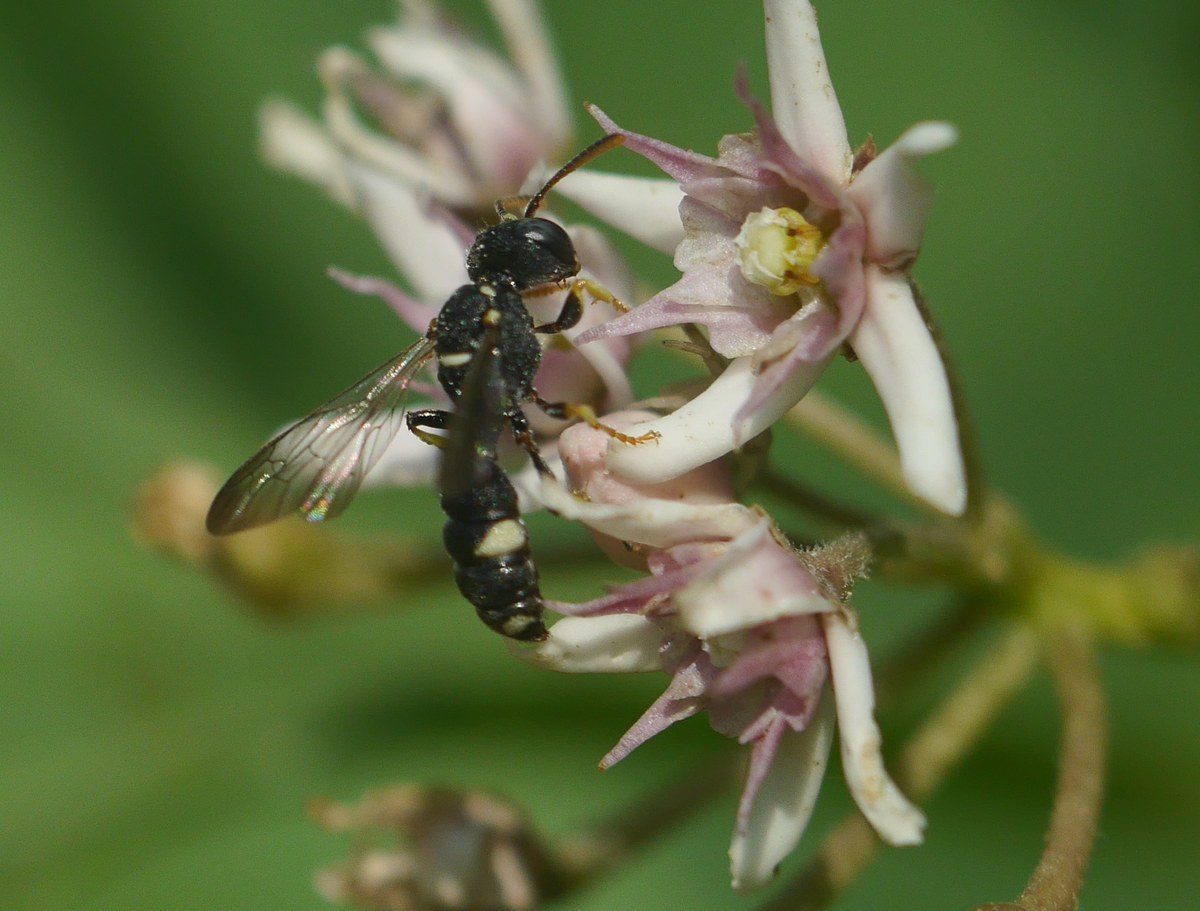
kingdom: Animalia
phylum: Arthropoda
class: Insecta
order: Hymenoptera
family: Crabronidae
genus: Cerceris
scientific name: Cerceris rybyensis
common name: Ornate tailed digger wasp
